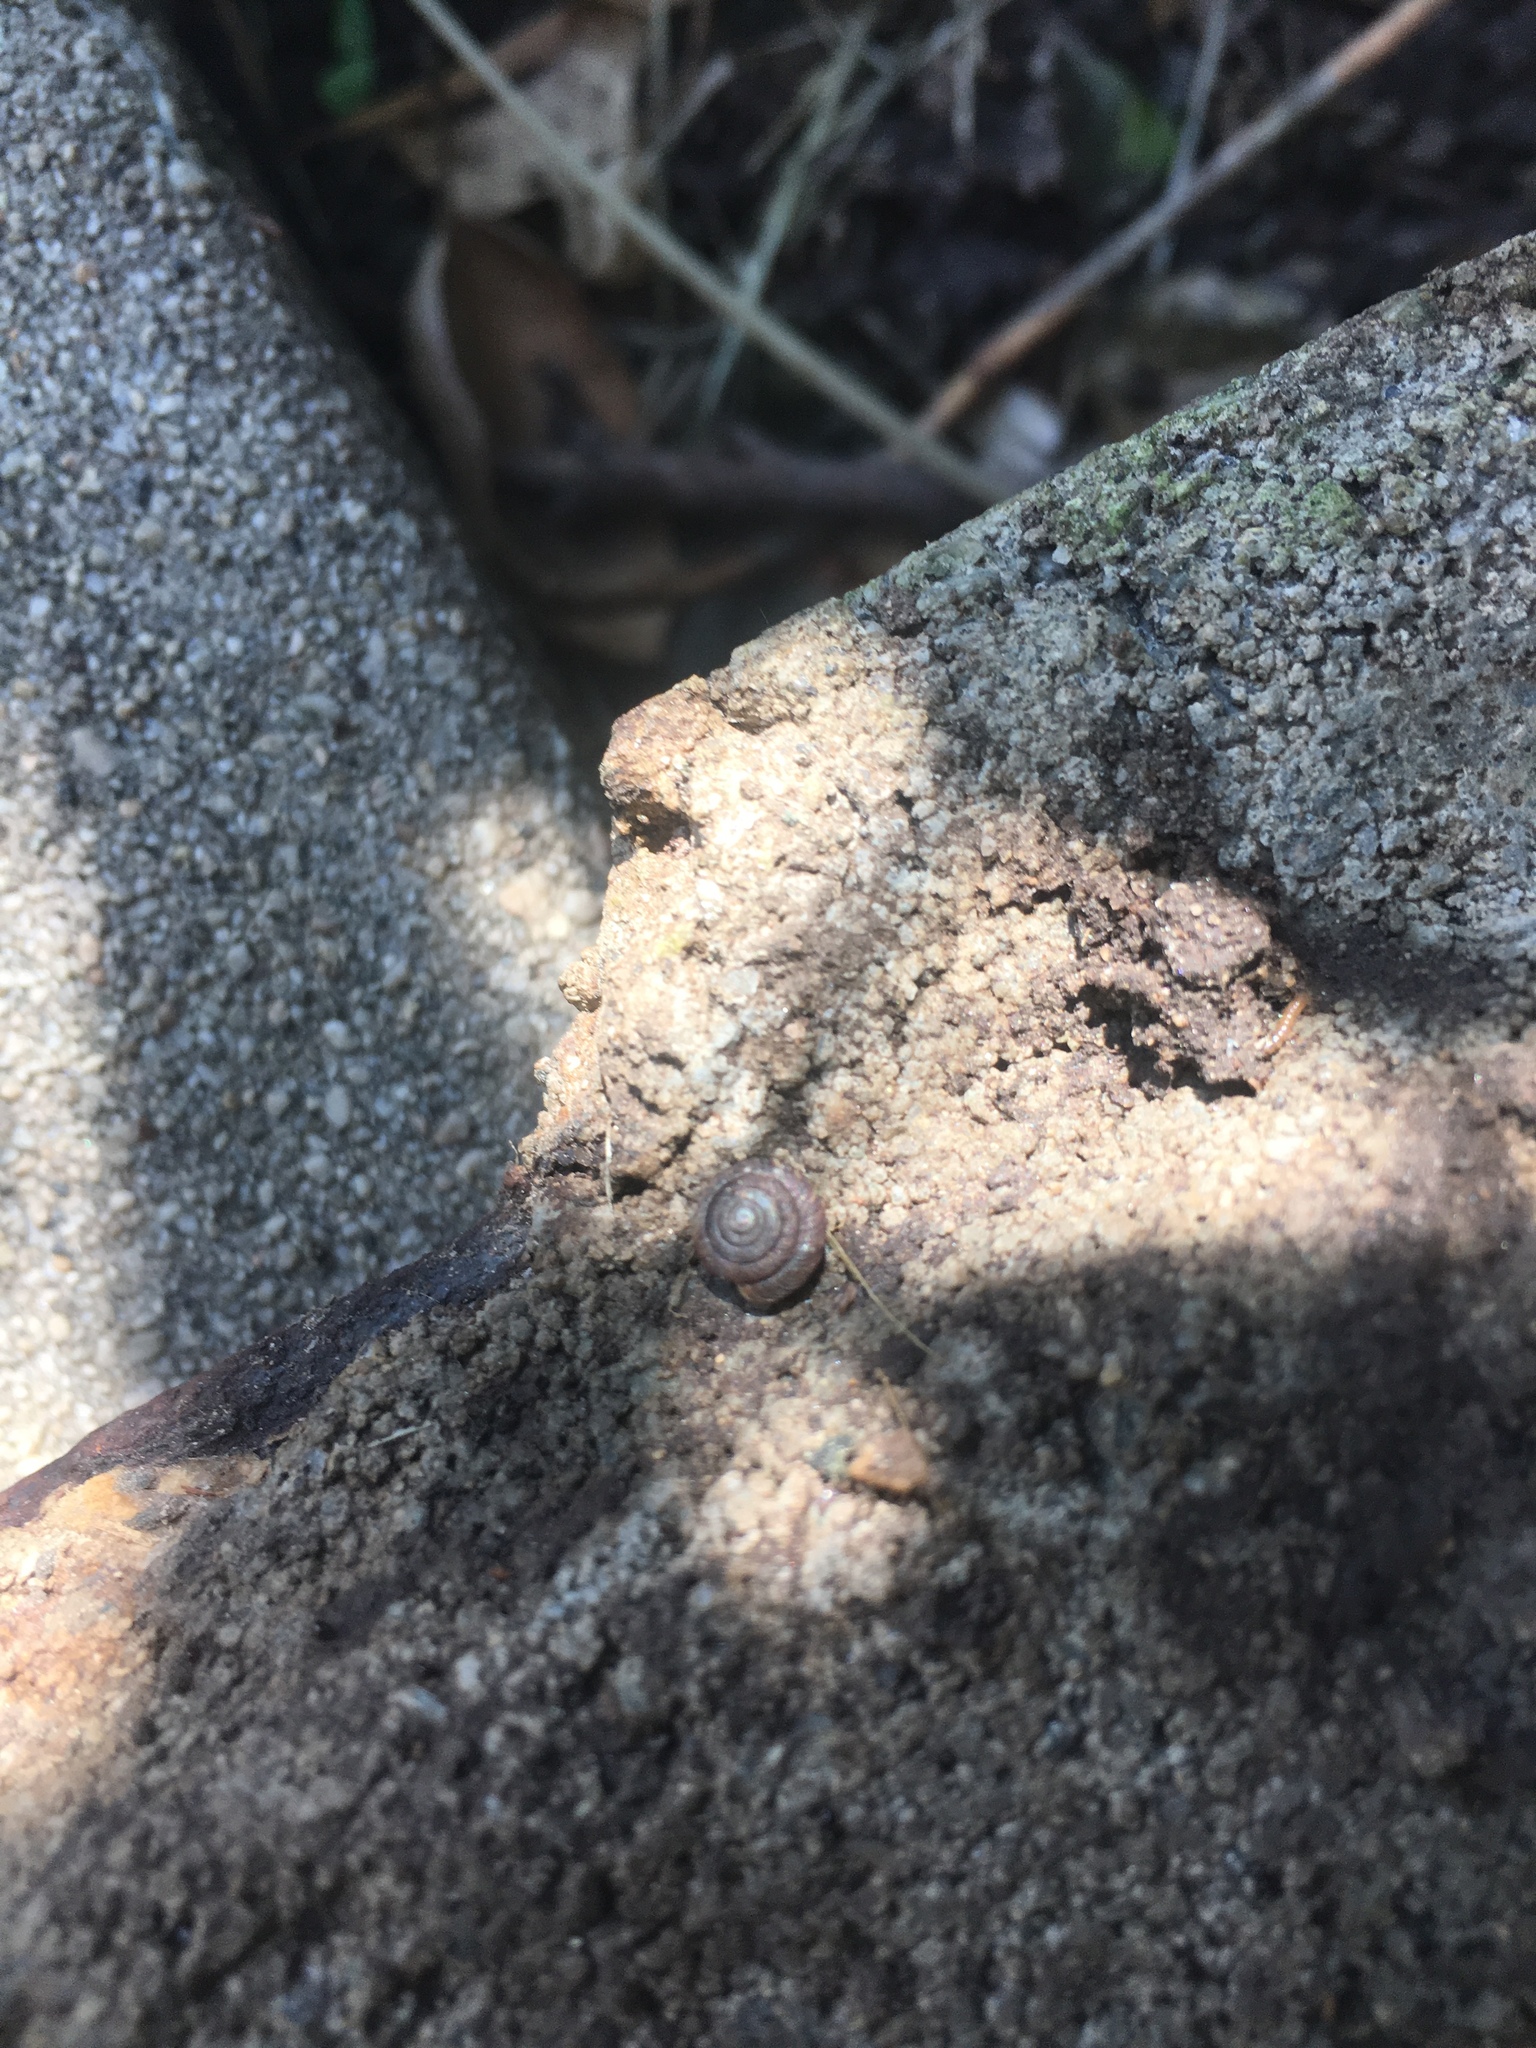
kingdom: Animalia
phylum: Mollusca
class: Gastropoda
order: Stylommatophora
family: Discidae
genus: Discus
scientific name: Discus rotundatus
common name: Rounded snail
